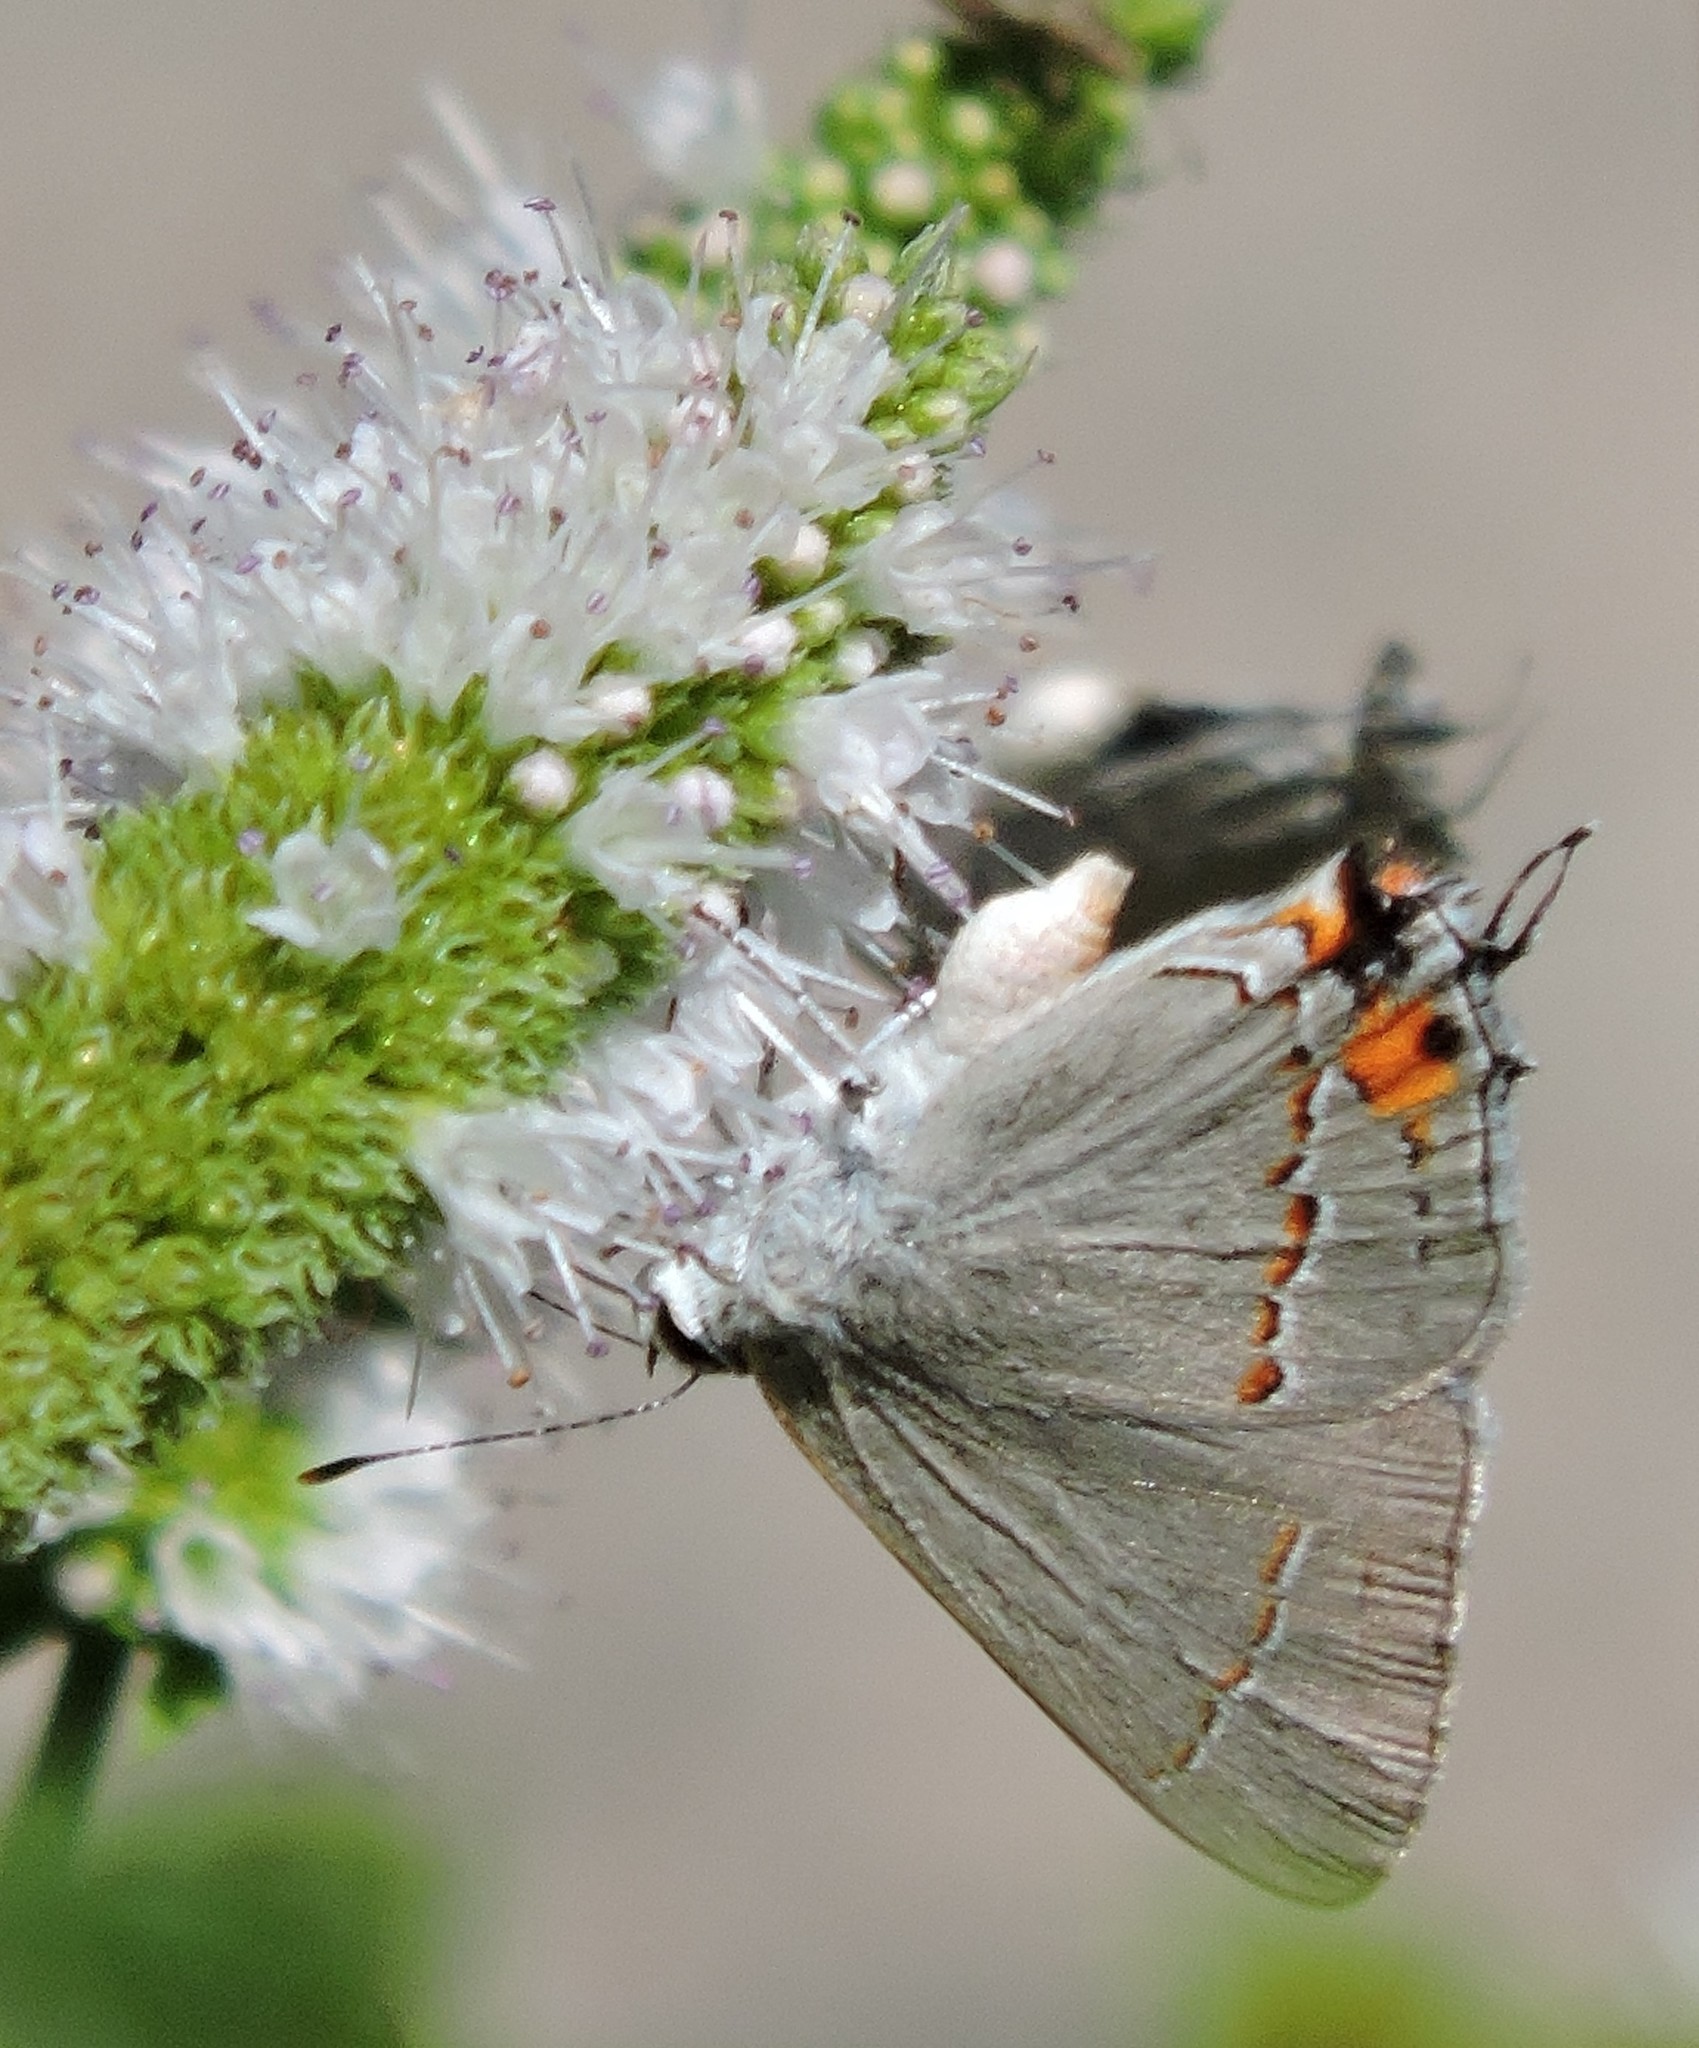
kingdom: Animalia
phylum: Arthropoda
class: Insecta
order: Lepidoptera
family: Lycaenidae
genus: Strymon
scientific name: Strymon melinus
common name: Gray hairstreak
